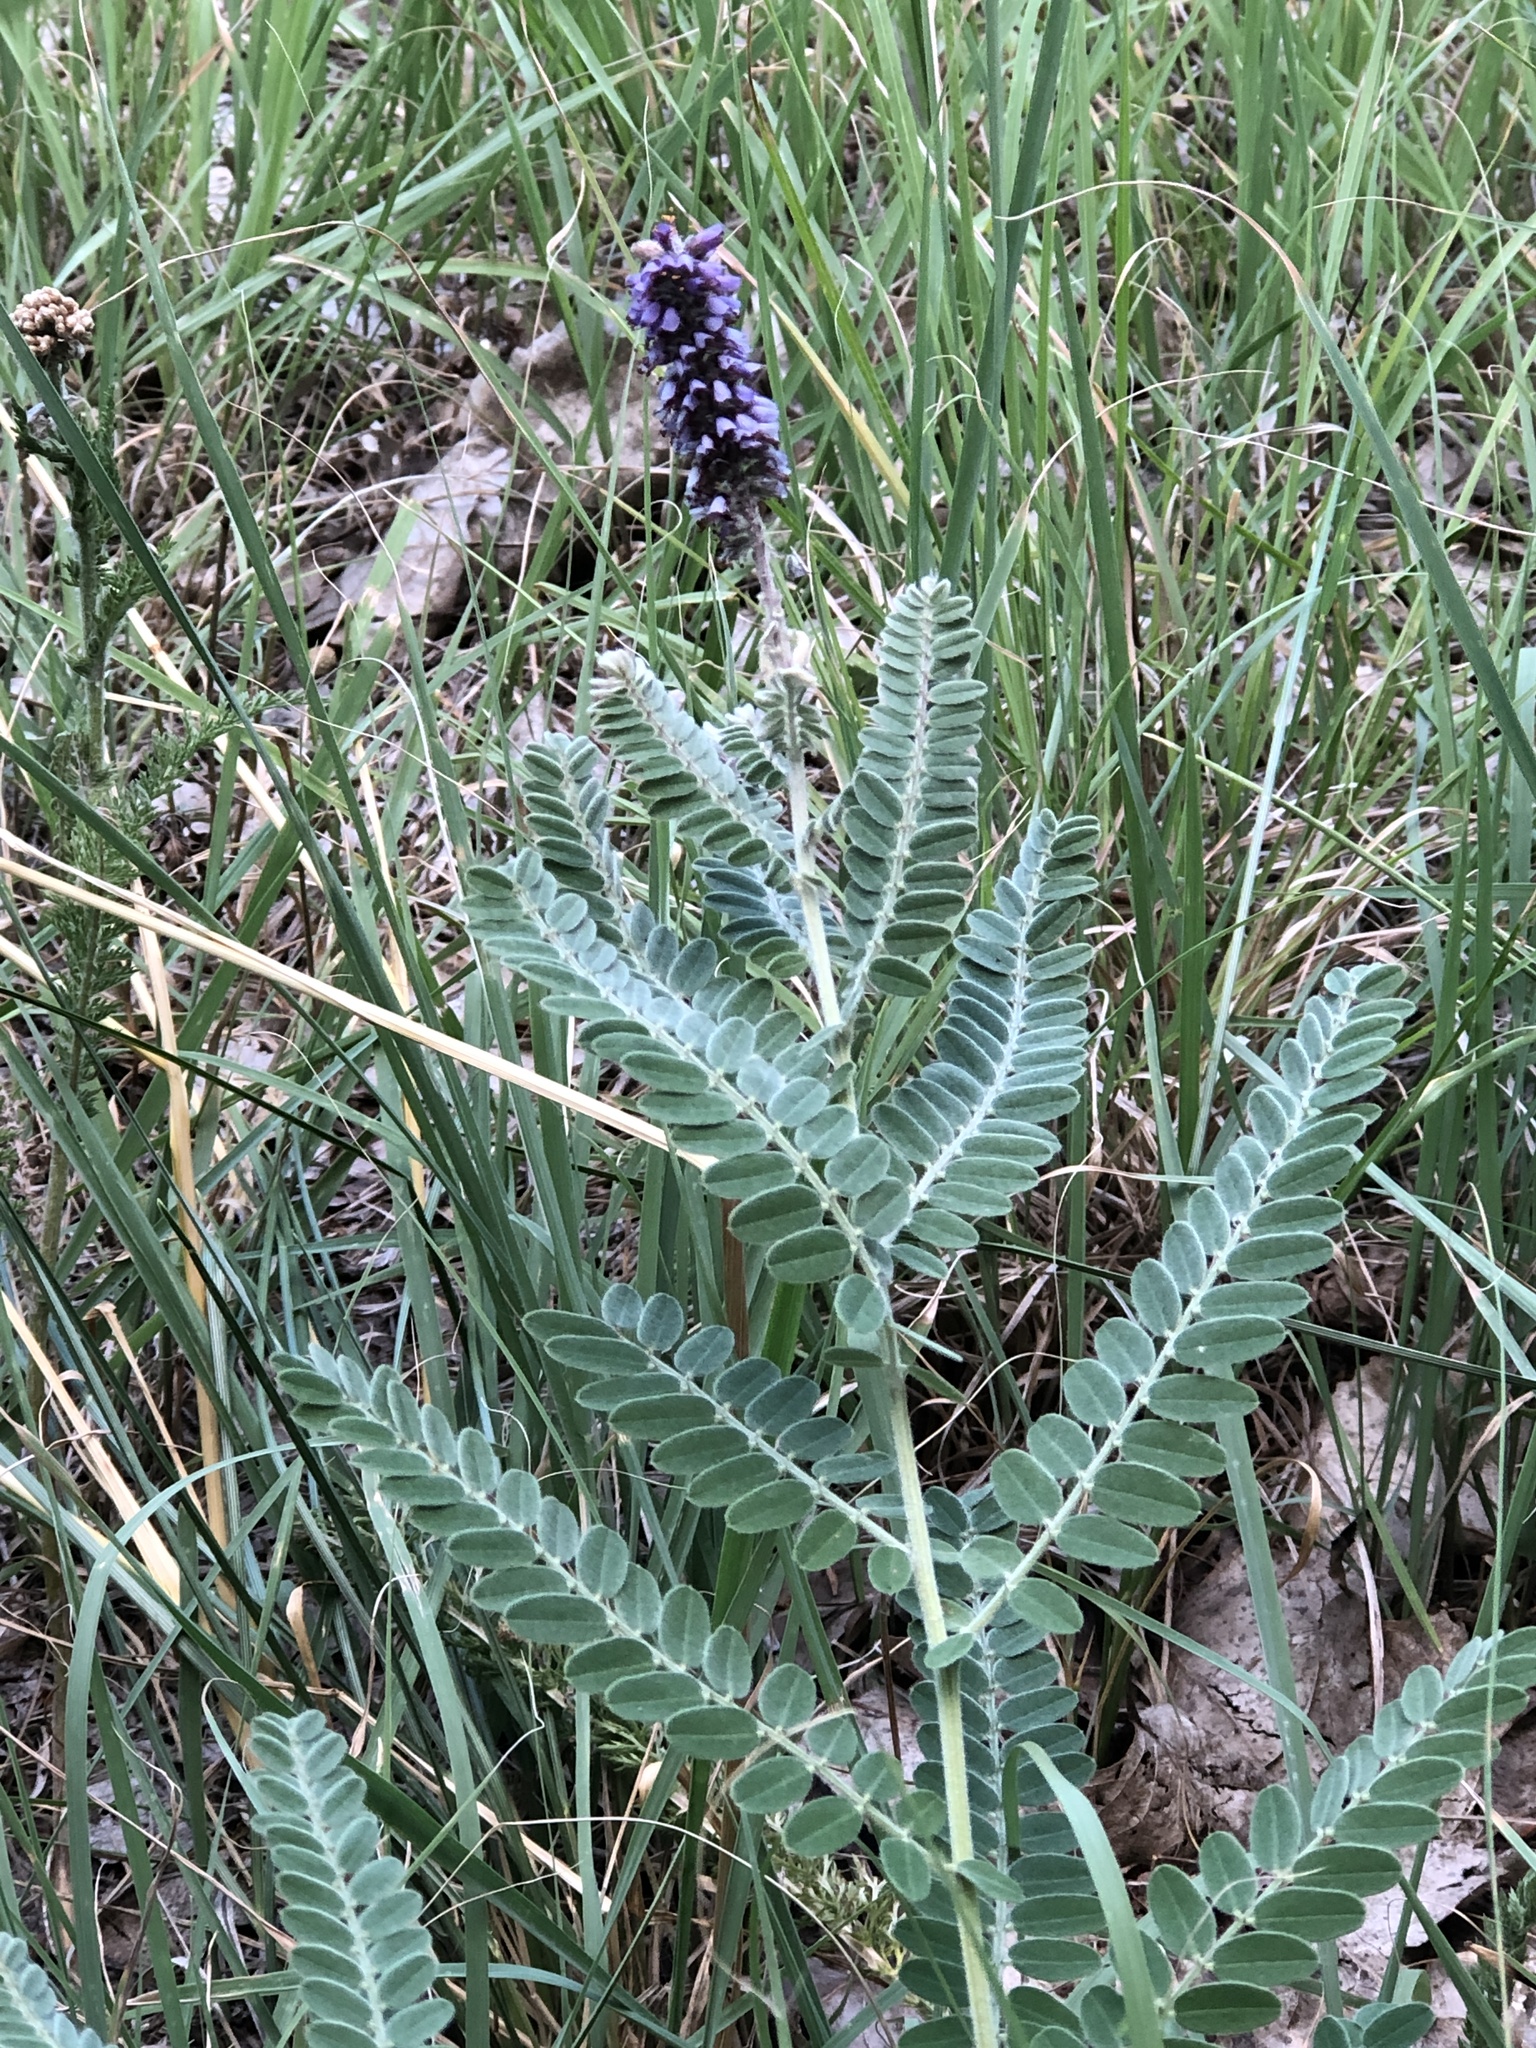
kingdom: Plantae
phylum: Tracheophyta
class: Magnoliopsida
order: Fabales
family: Fabaceae
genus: Amorpha
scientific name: Amorpha canescens
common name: Leadplant
